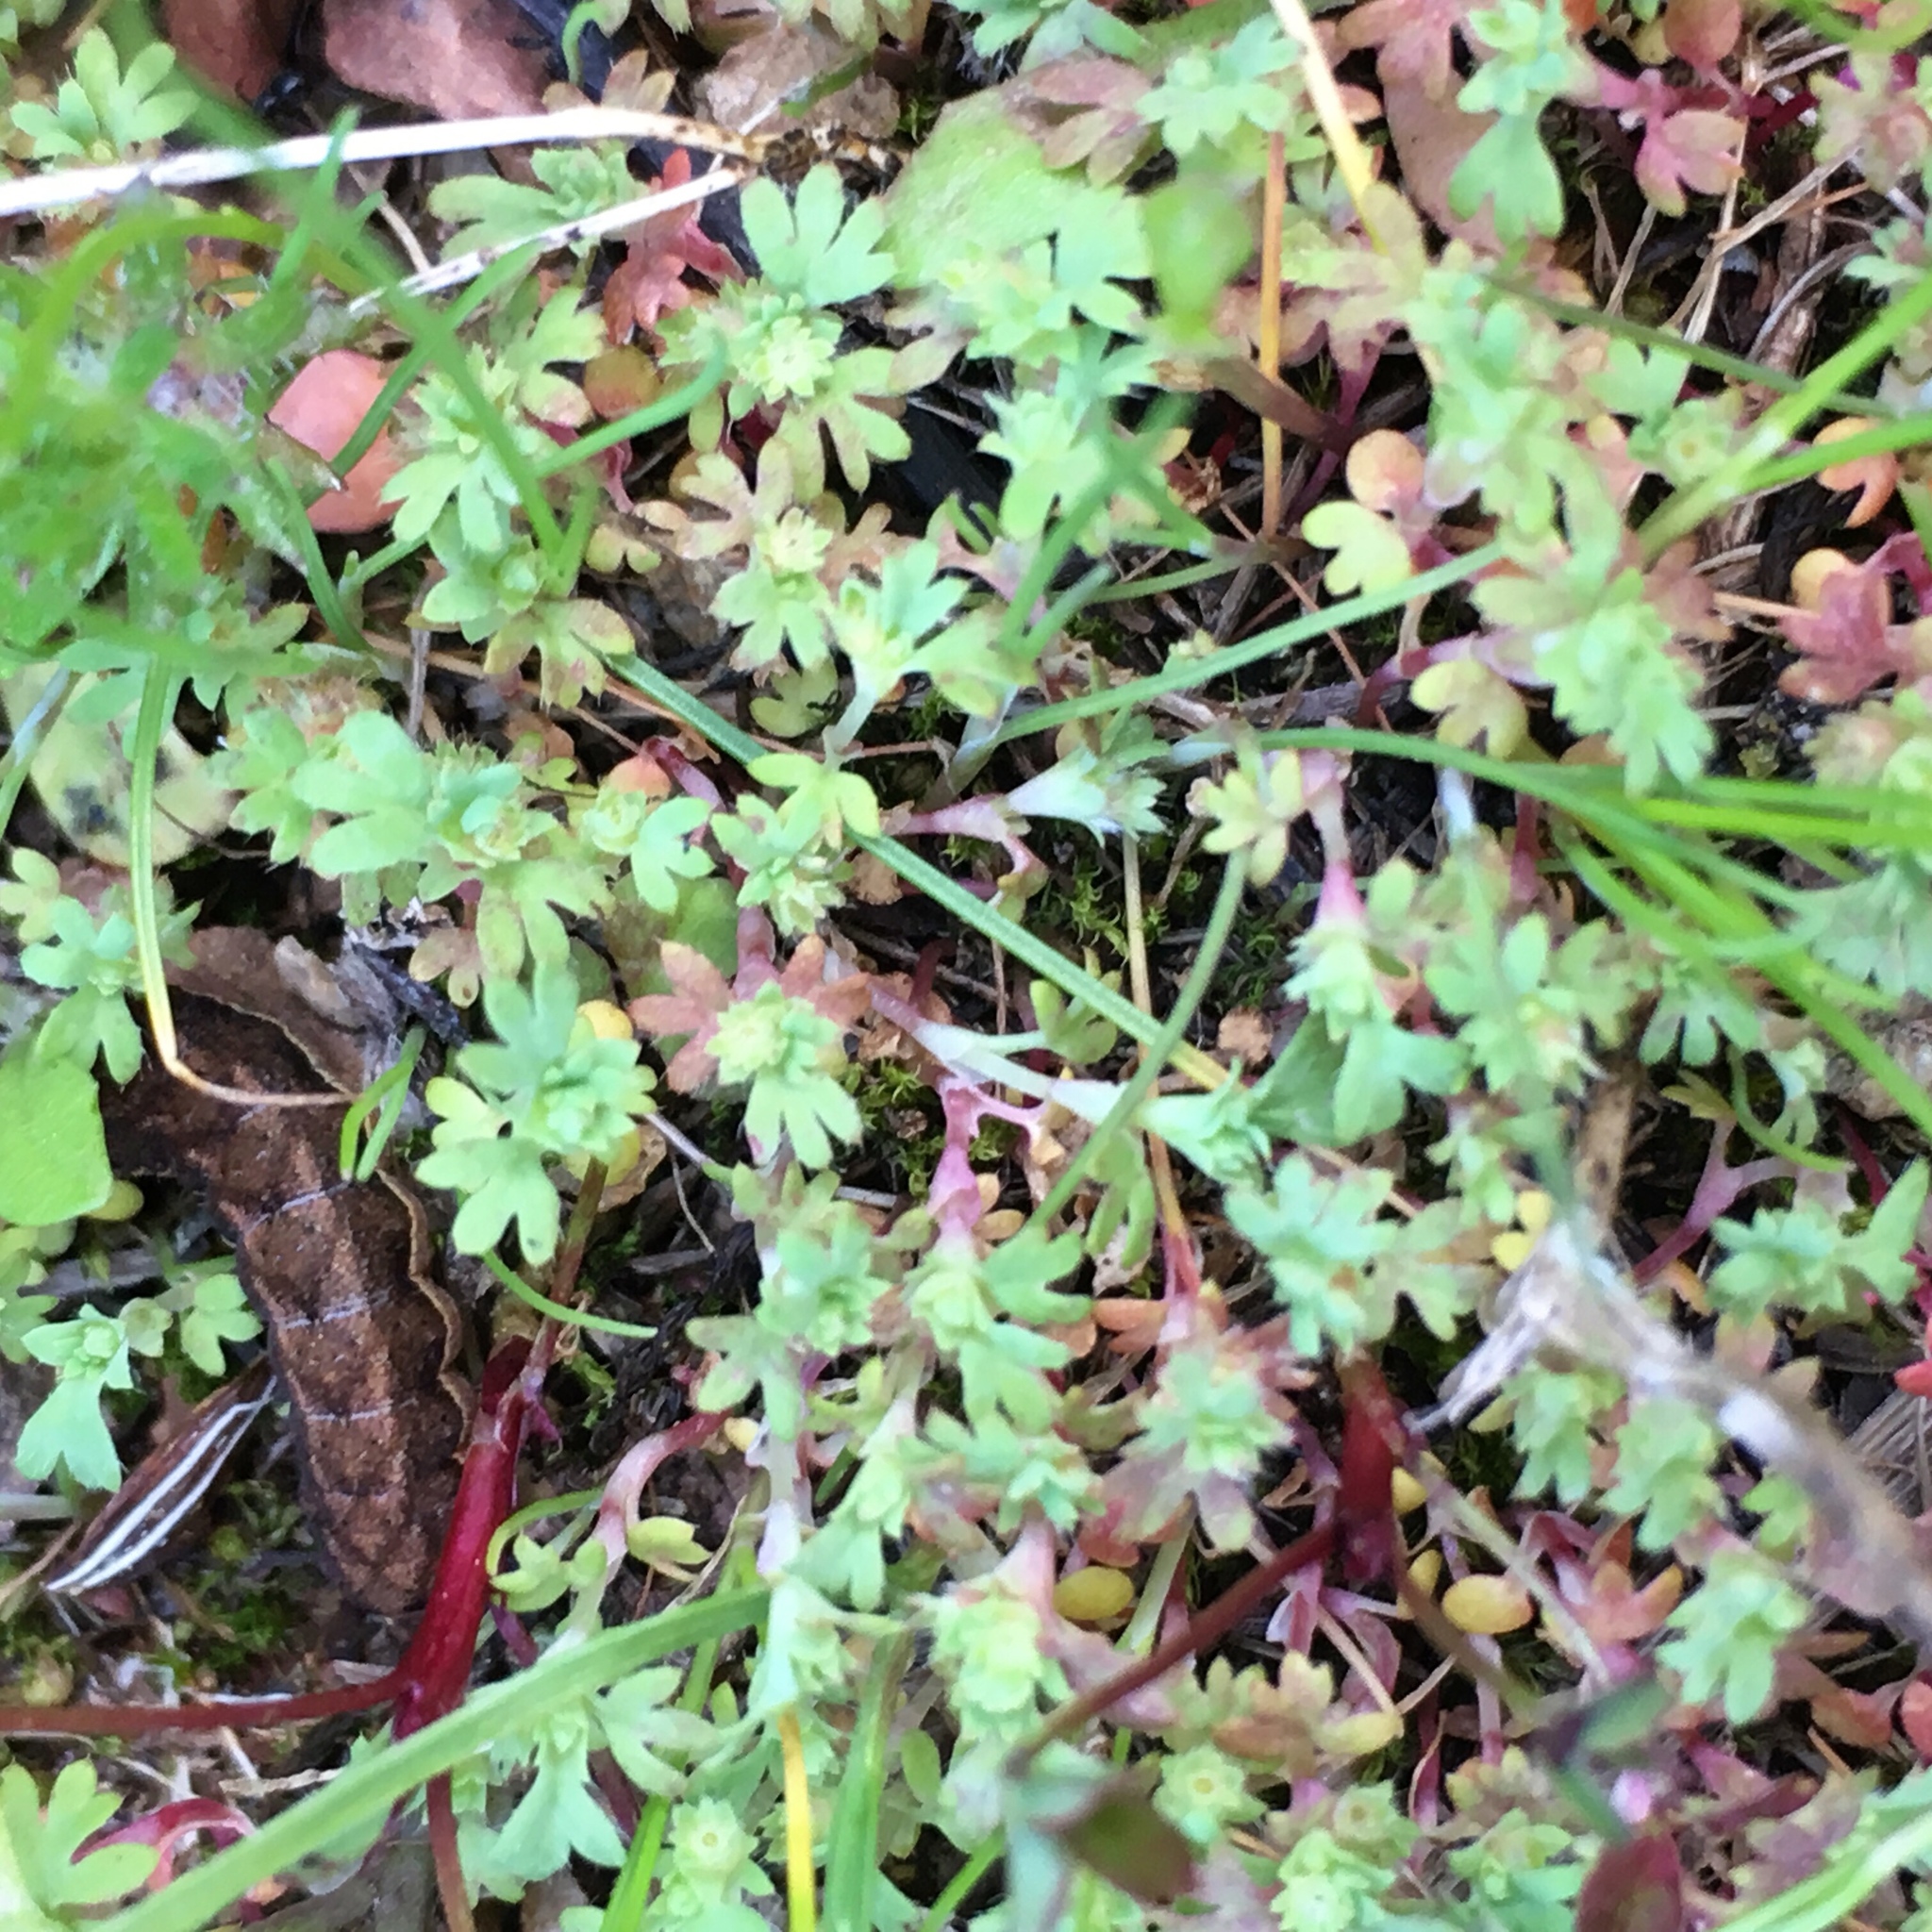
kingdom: Plantae
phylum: Tracheophyta
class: Magnoliopsida
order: Rosales
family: Rosaceae
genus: Aphanes
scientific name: Aphanes arvensis
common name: Parsley-piert
